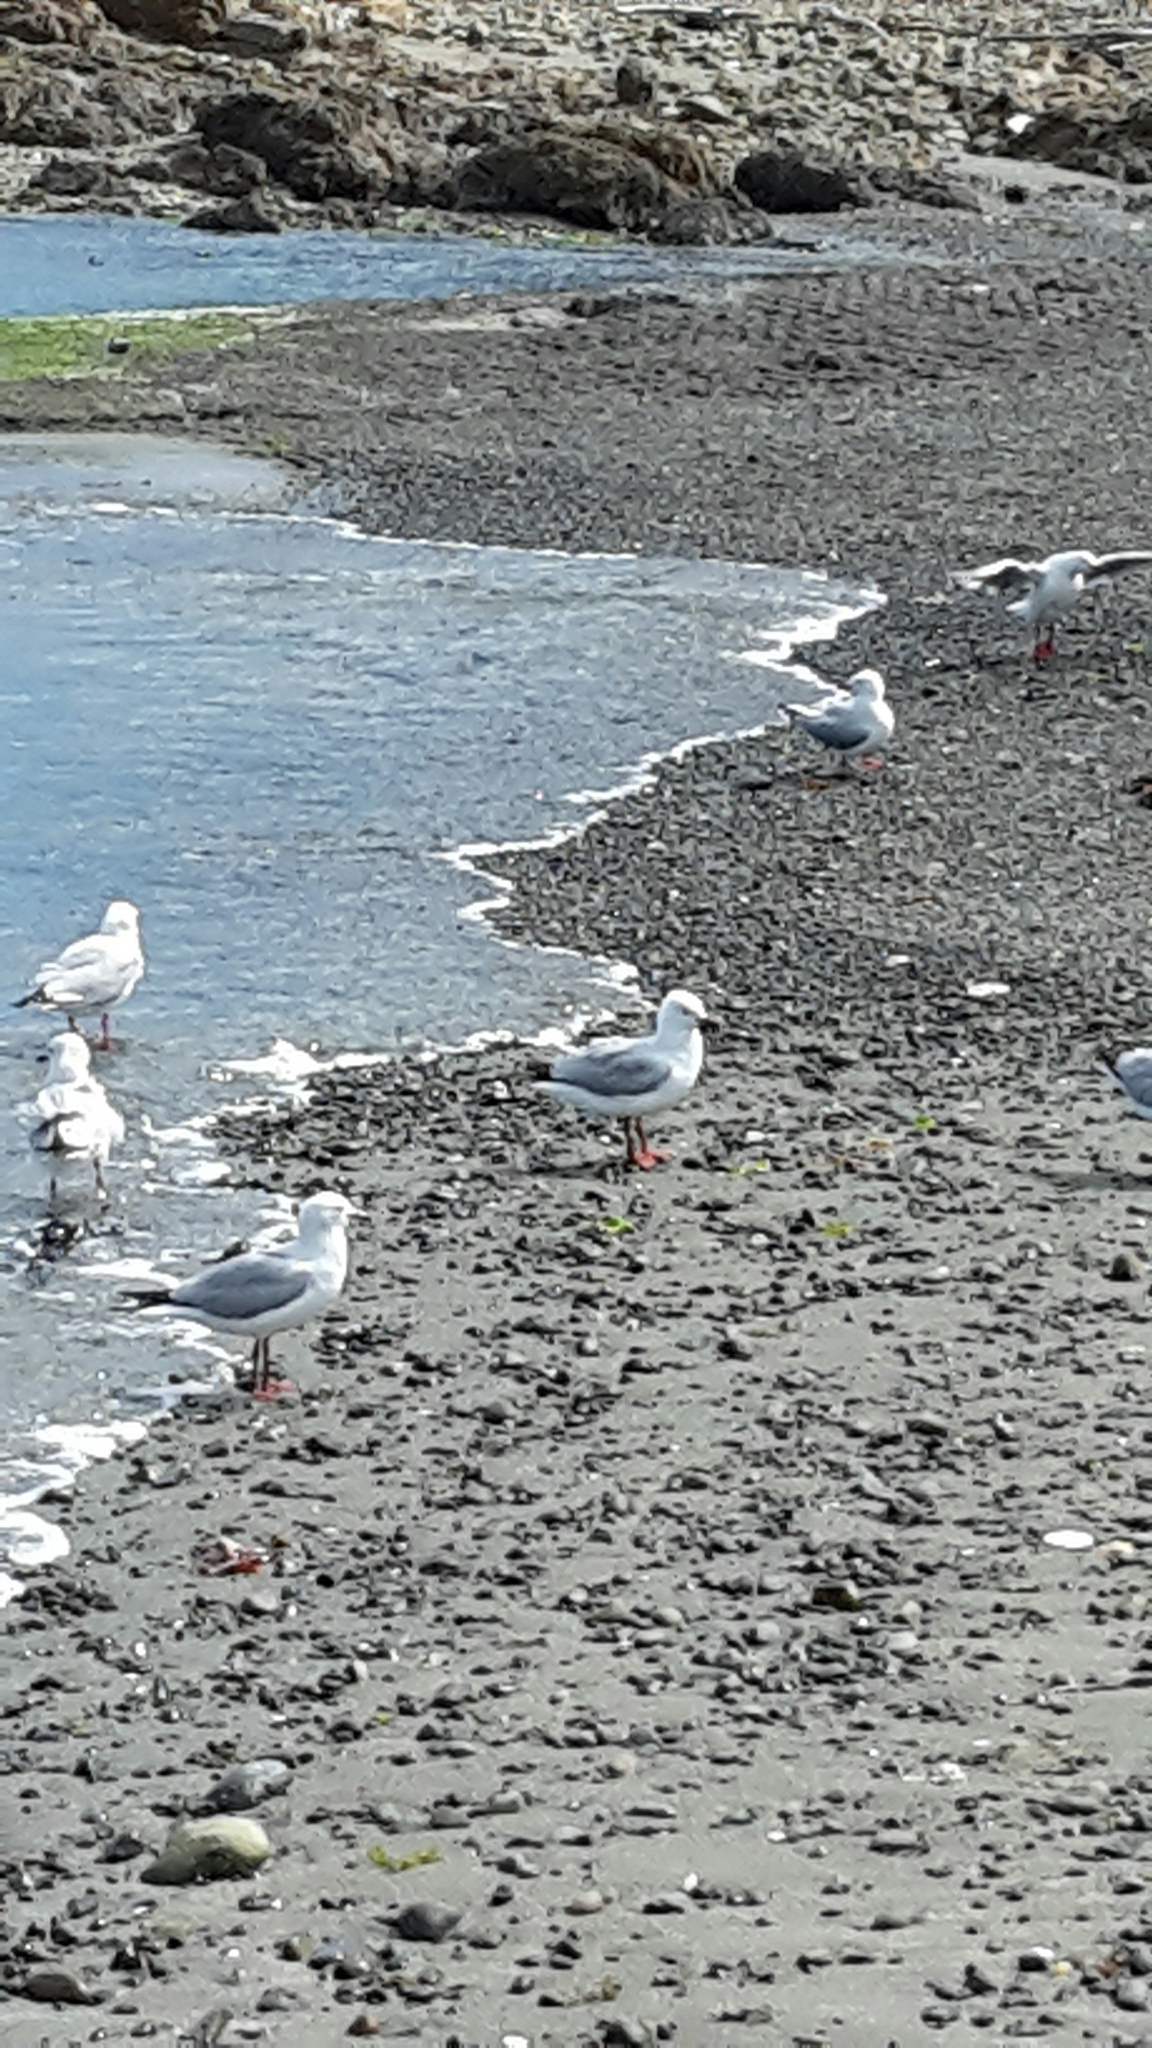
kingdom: Animalia
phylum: Chordata
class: Aves
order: Charadriiformes
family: Laridae
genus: Chroicocephalus
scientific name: Chroicocephalus novaehollandiae
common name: Silver gull
